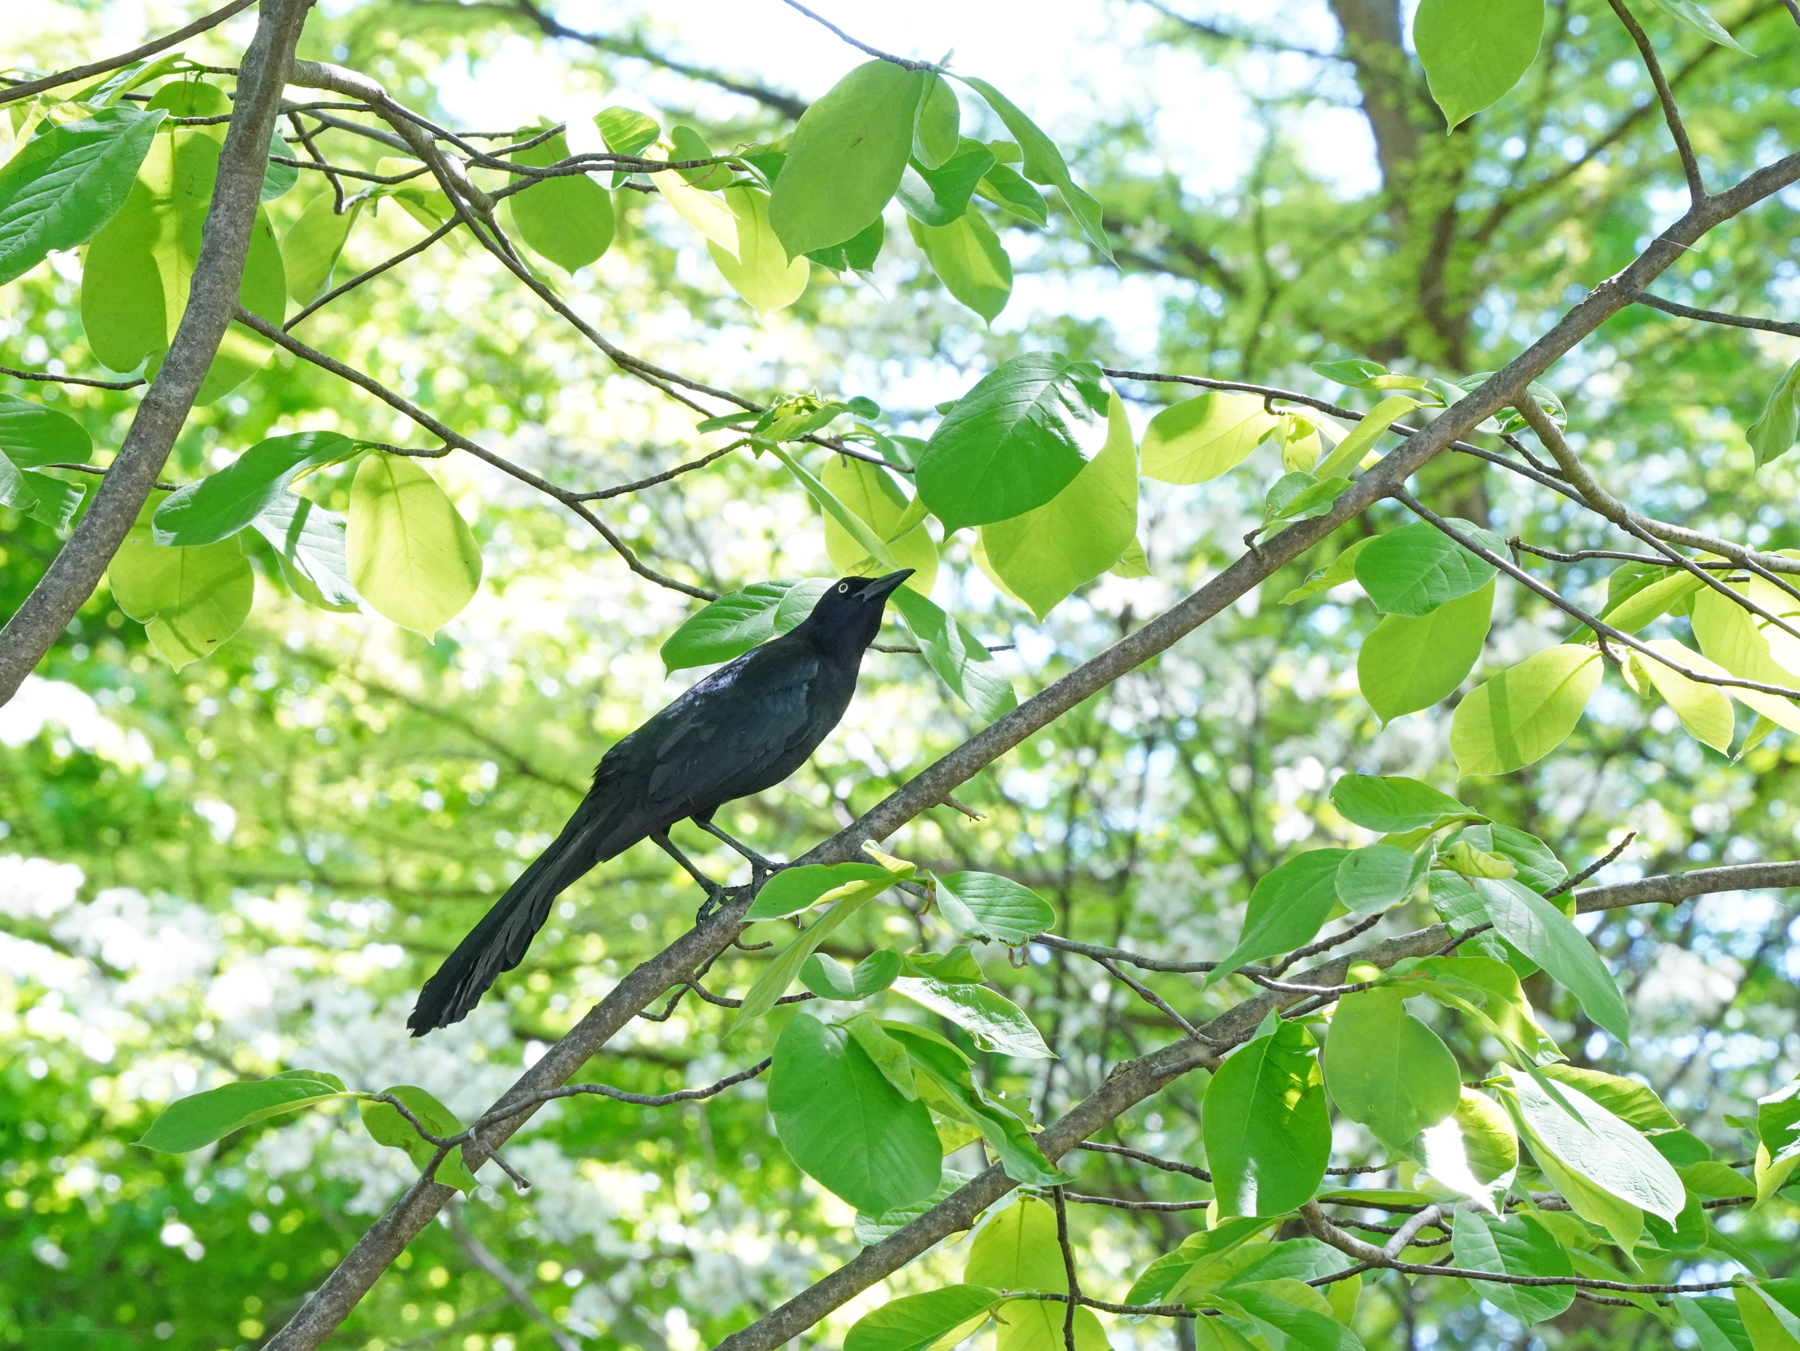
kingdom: Animalia
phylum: Chordata
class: Aves
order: Passeriformes
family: Icteridae
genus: Quiscalus
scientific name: Quiscalus mexicanus
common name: Great-tailed grackle
